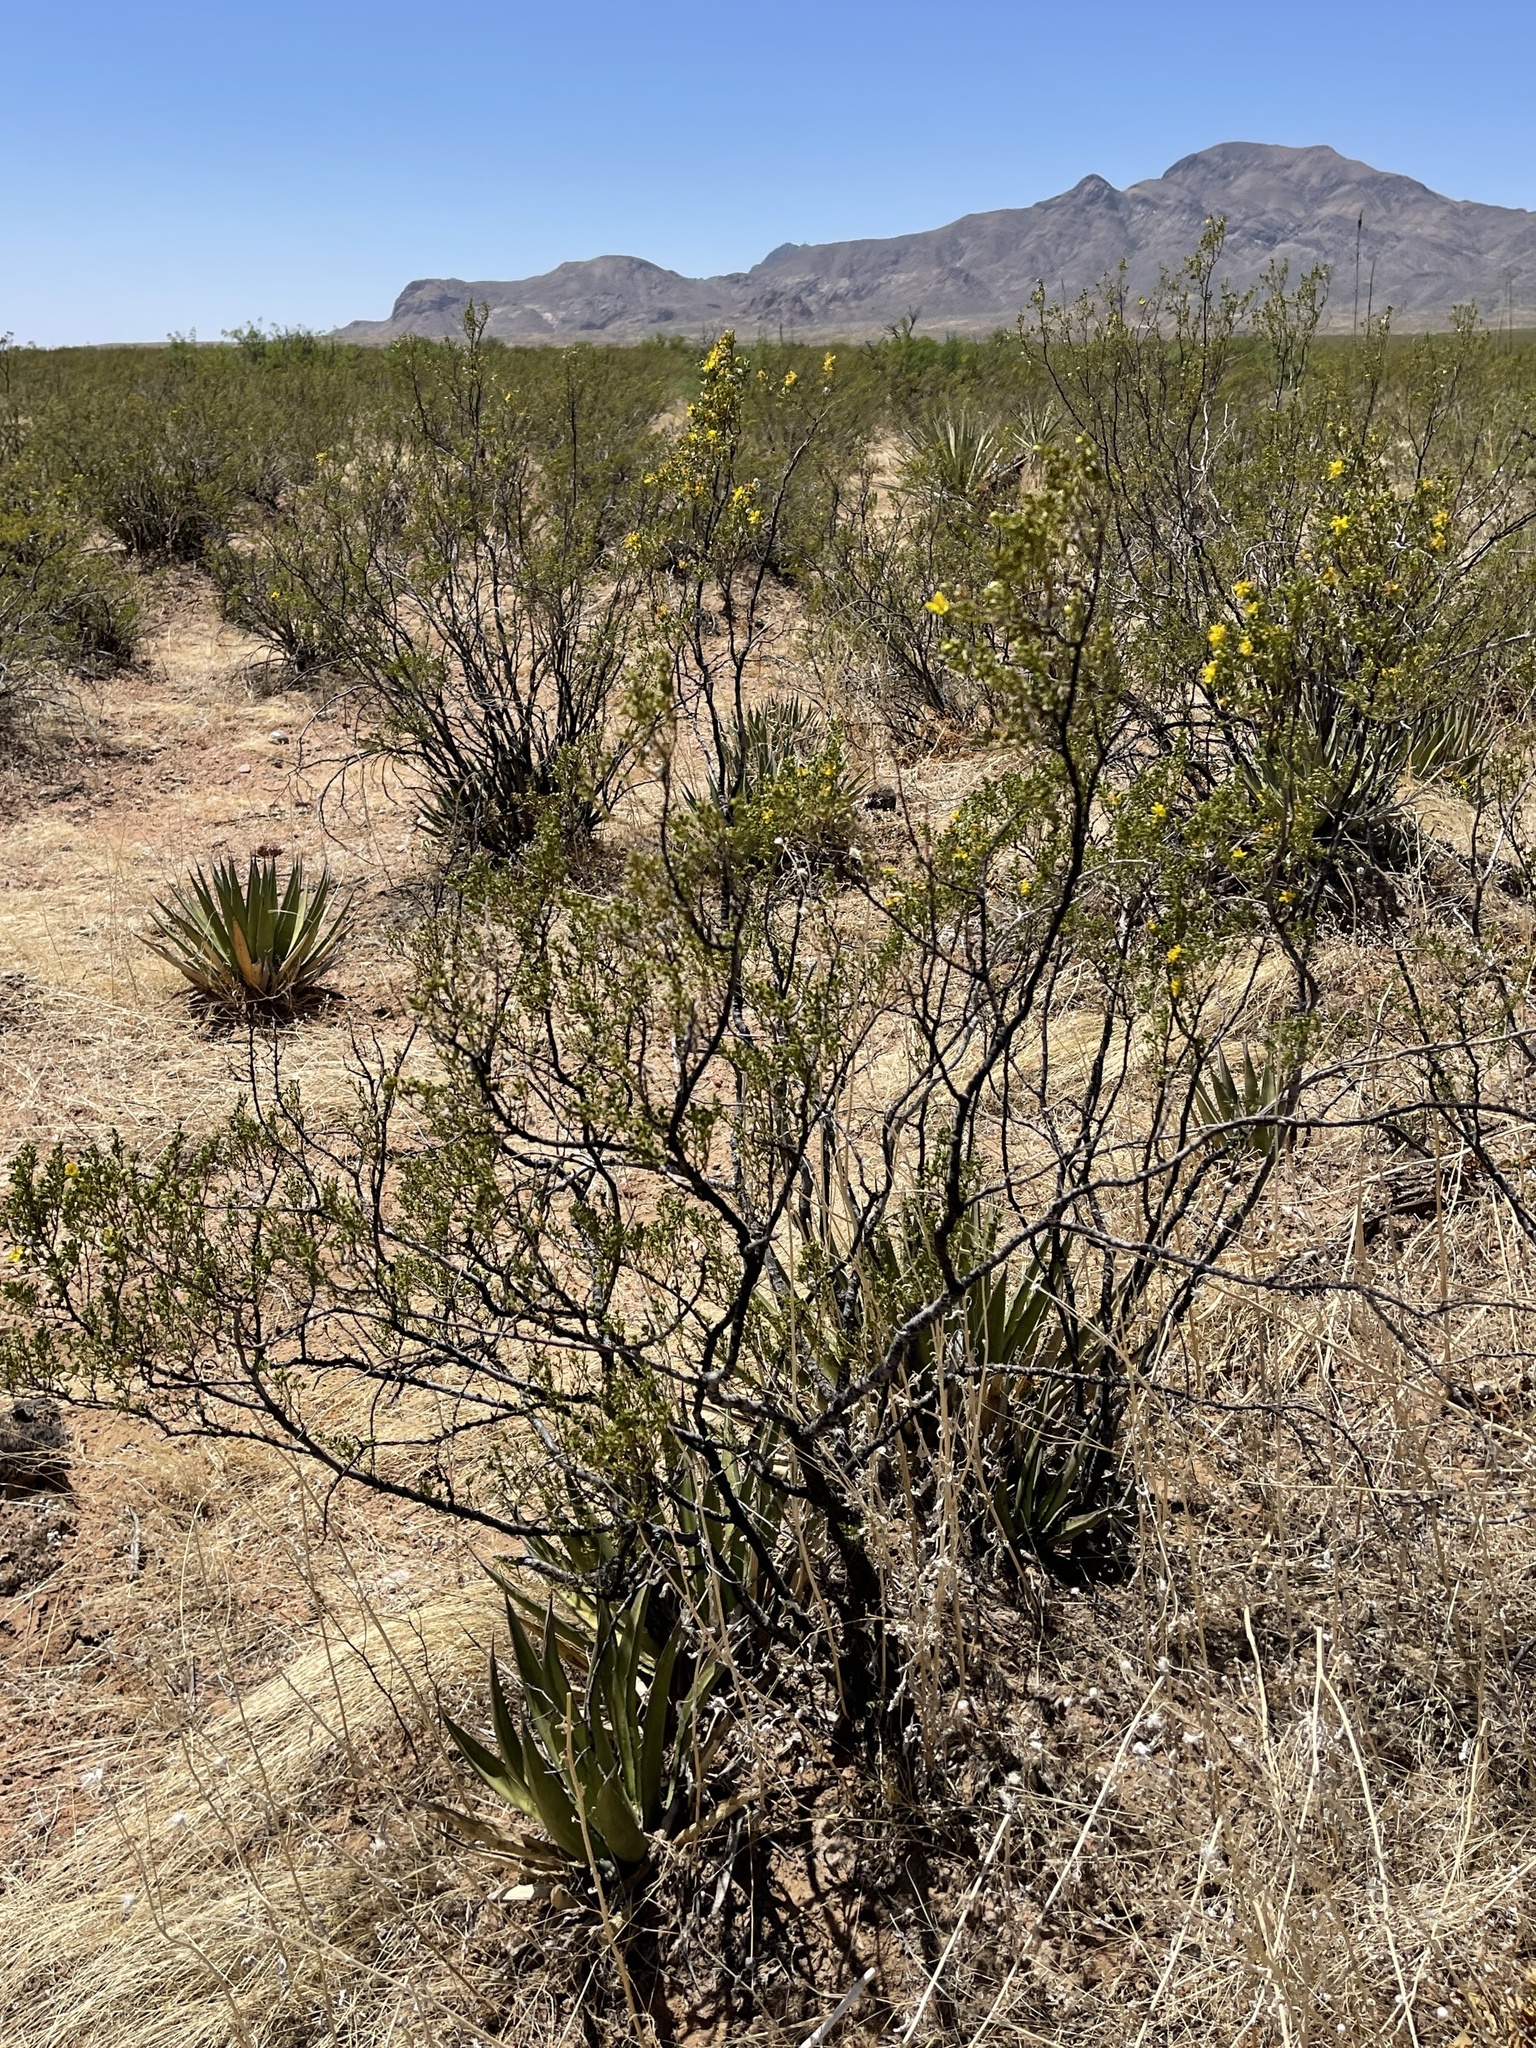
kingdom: Plantae
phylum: Tracheophyta
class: Magnoliopsida
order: Zygophyllales
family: Zygophyllaceae
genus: Larrea
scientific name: Larrea tridentata
